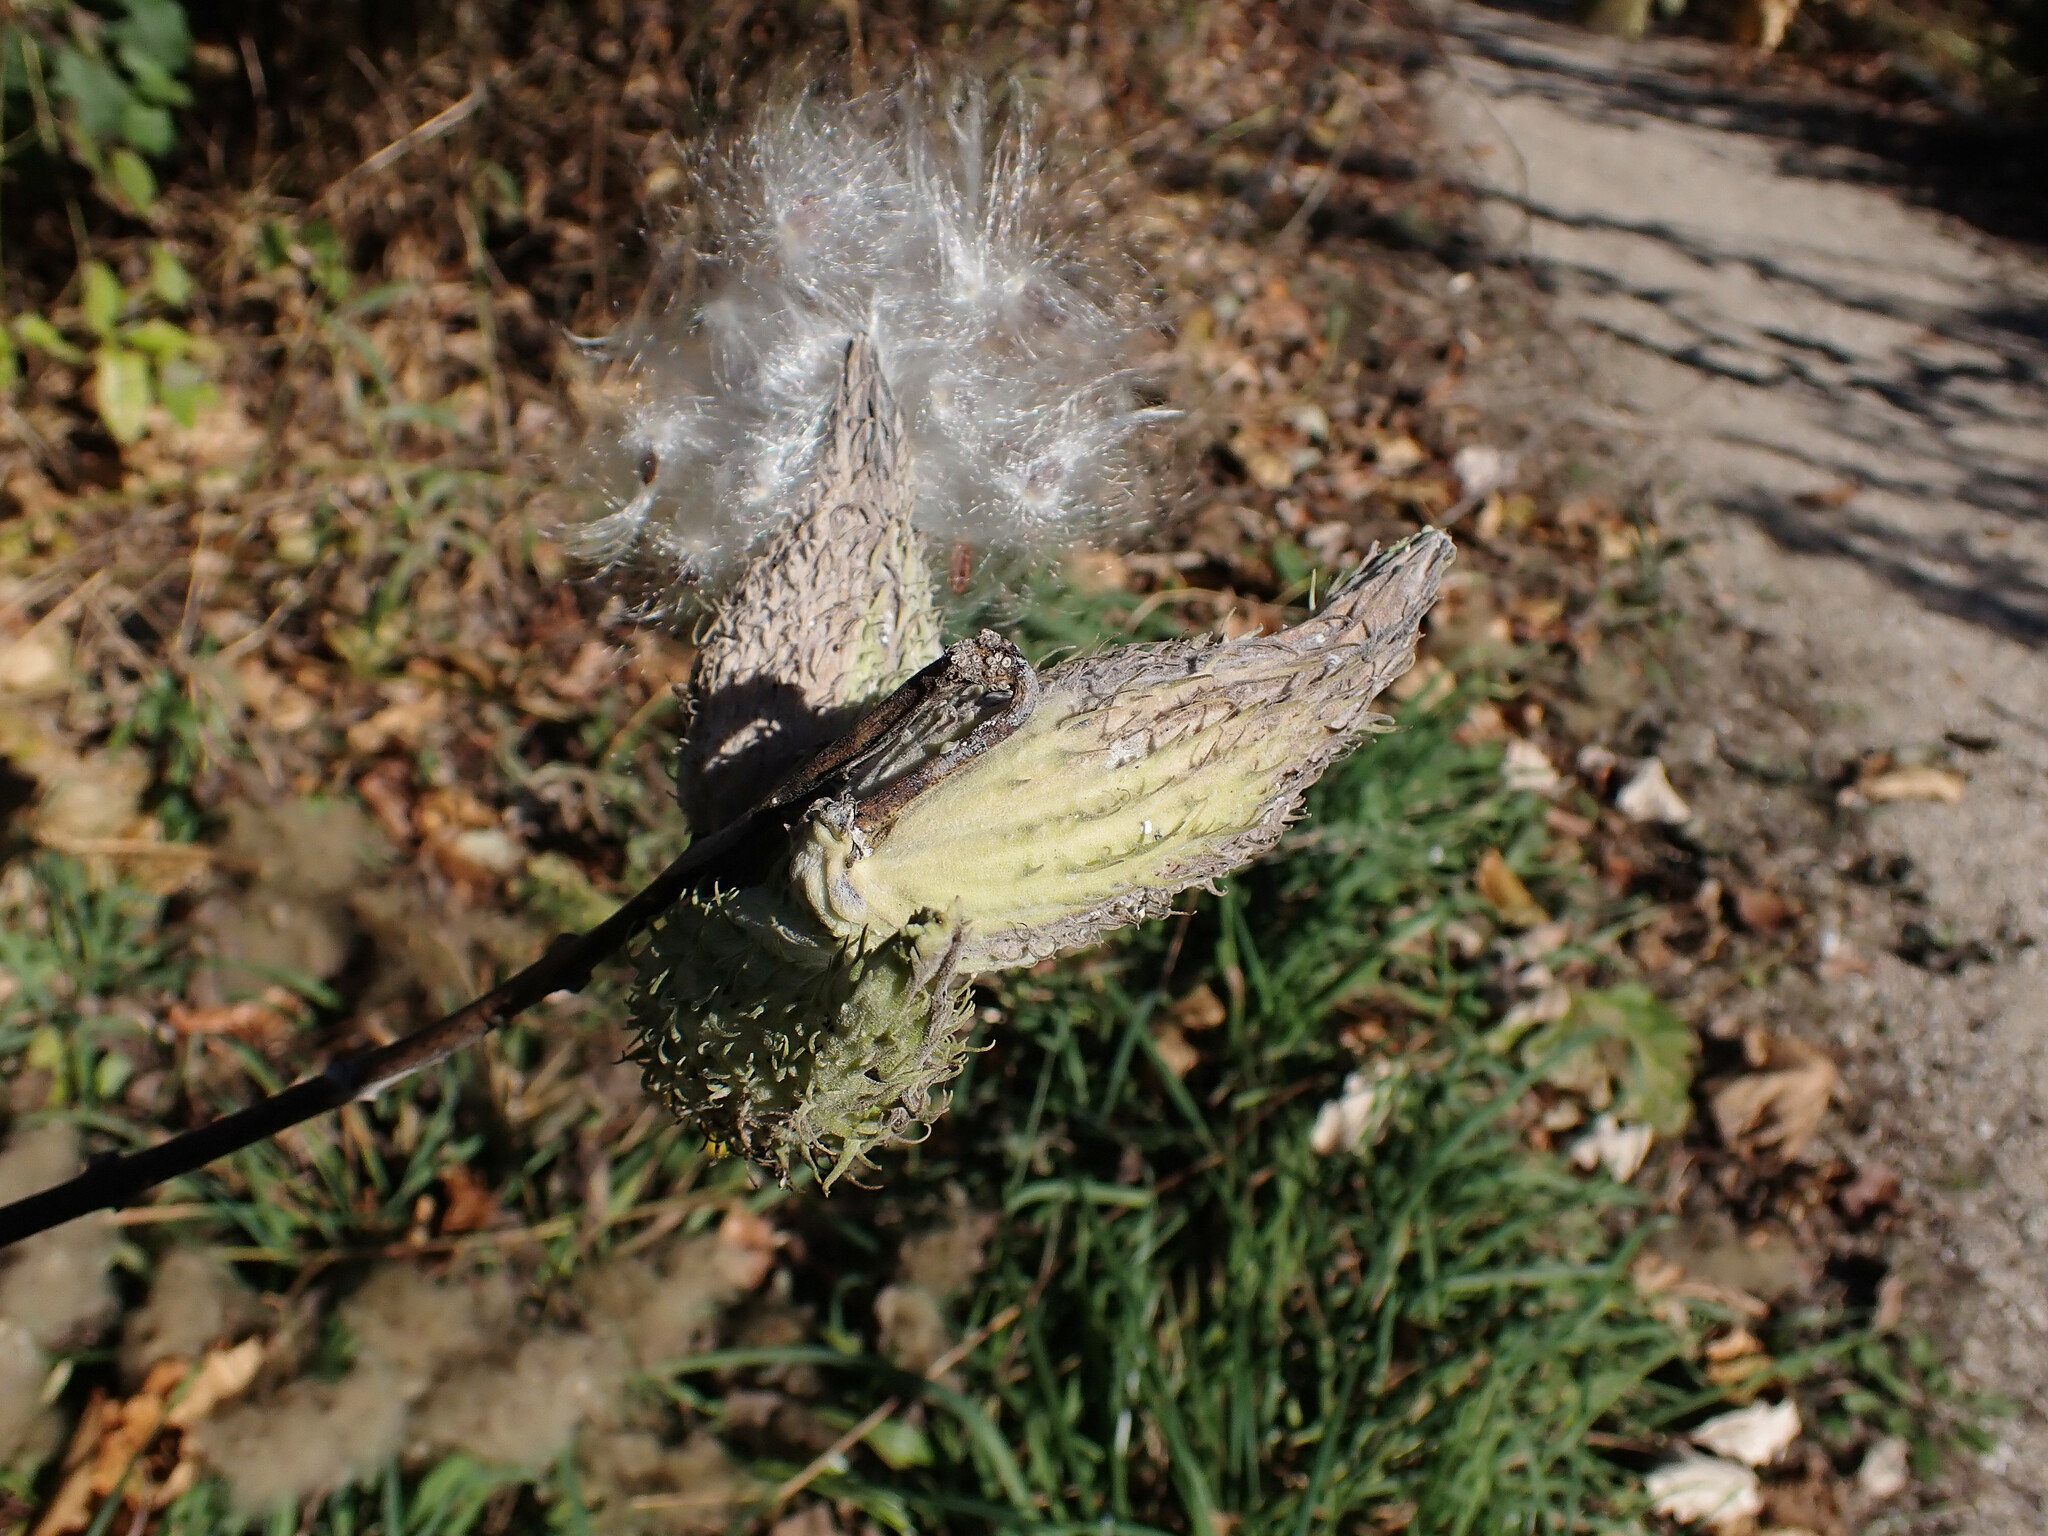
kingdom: Plantae
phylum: Tracheophyta
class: Magnoliopsida
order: Gentianales
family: Apocynaceae
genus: Asclepias
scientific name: Asclepias syriaca
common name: Common milkweed
